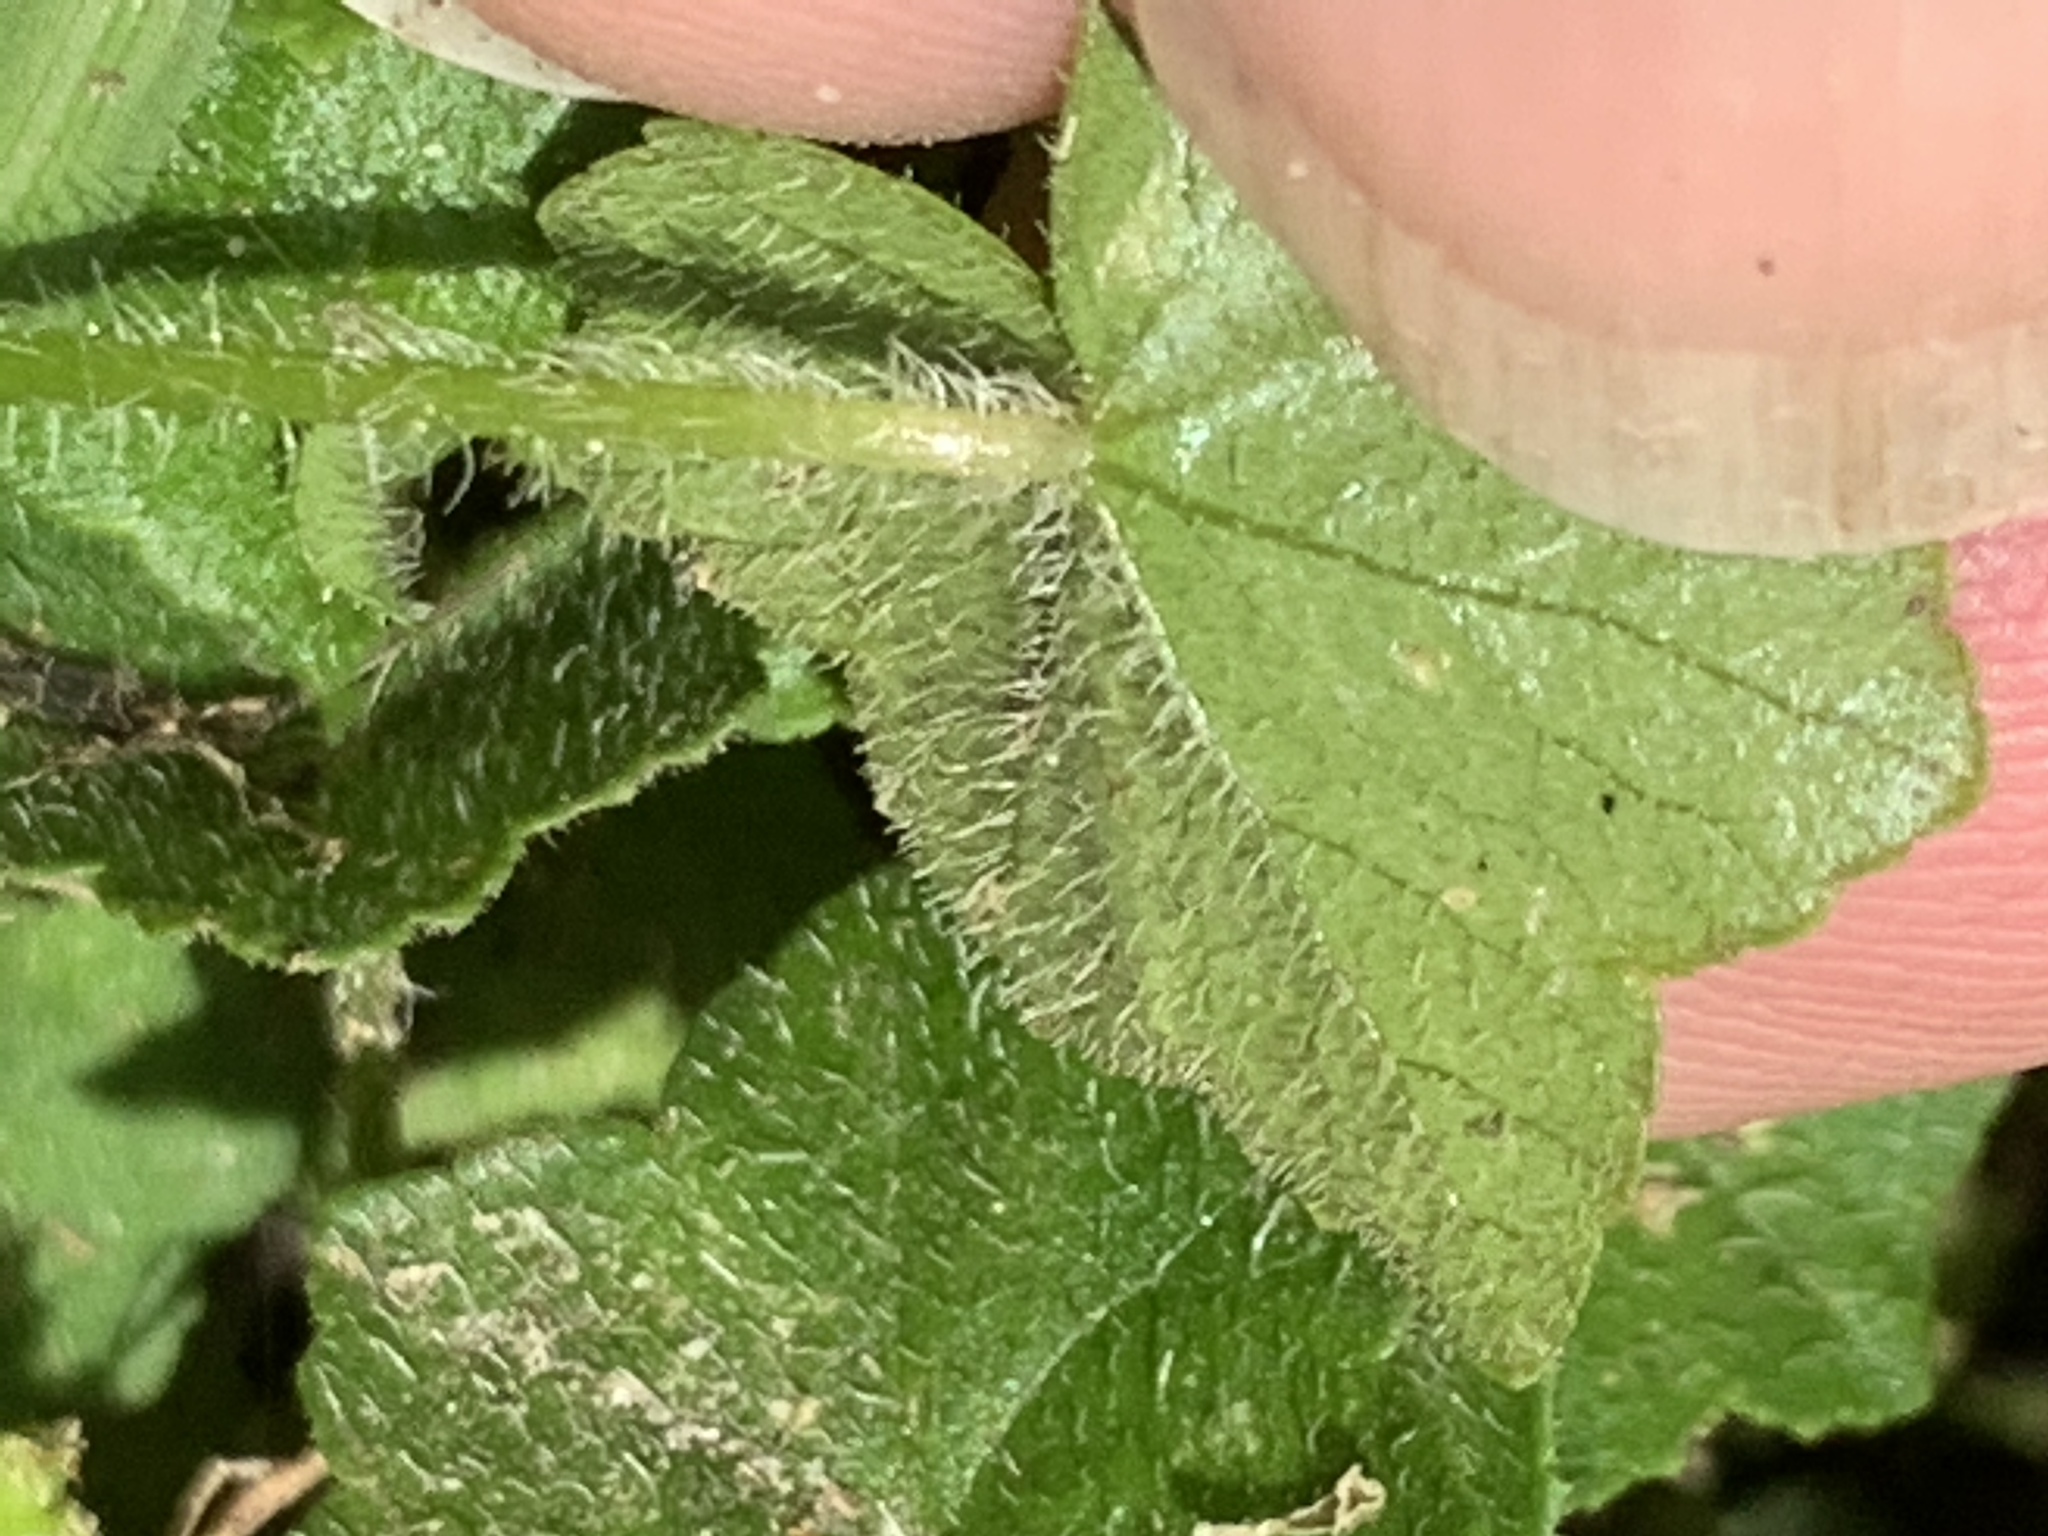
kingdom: Plantae
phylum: Tracheophyta
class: Magnoliopsida
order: Apiales
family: Araliaceae
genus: Hydrocotyle
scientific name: Hydrocotyle bowlesioides
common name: Largeleaf marshpennywort
